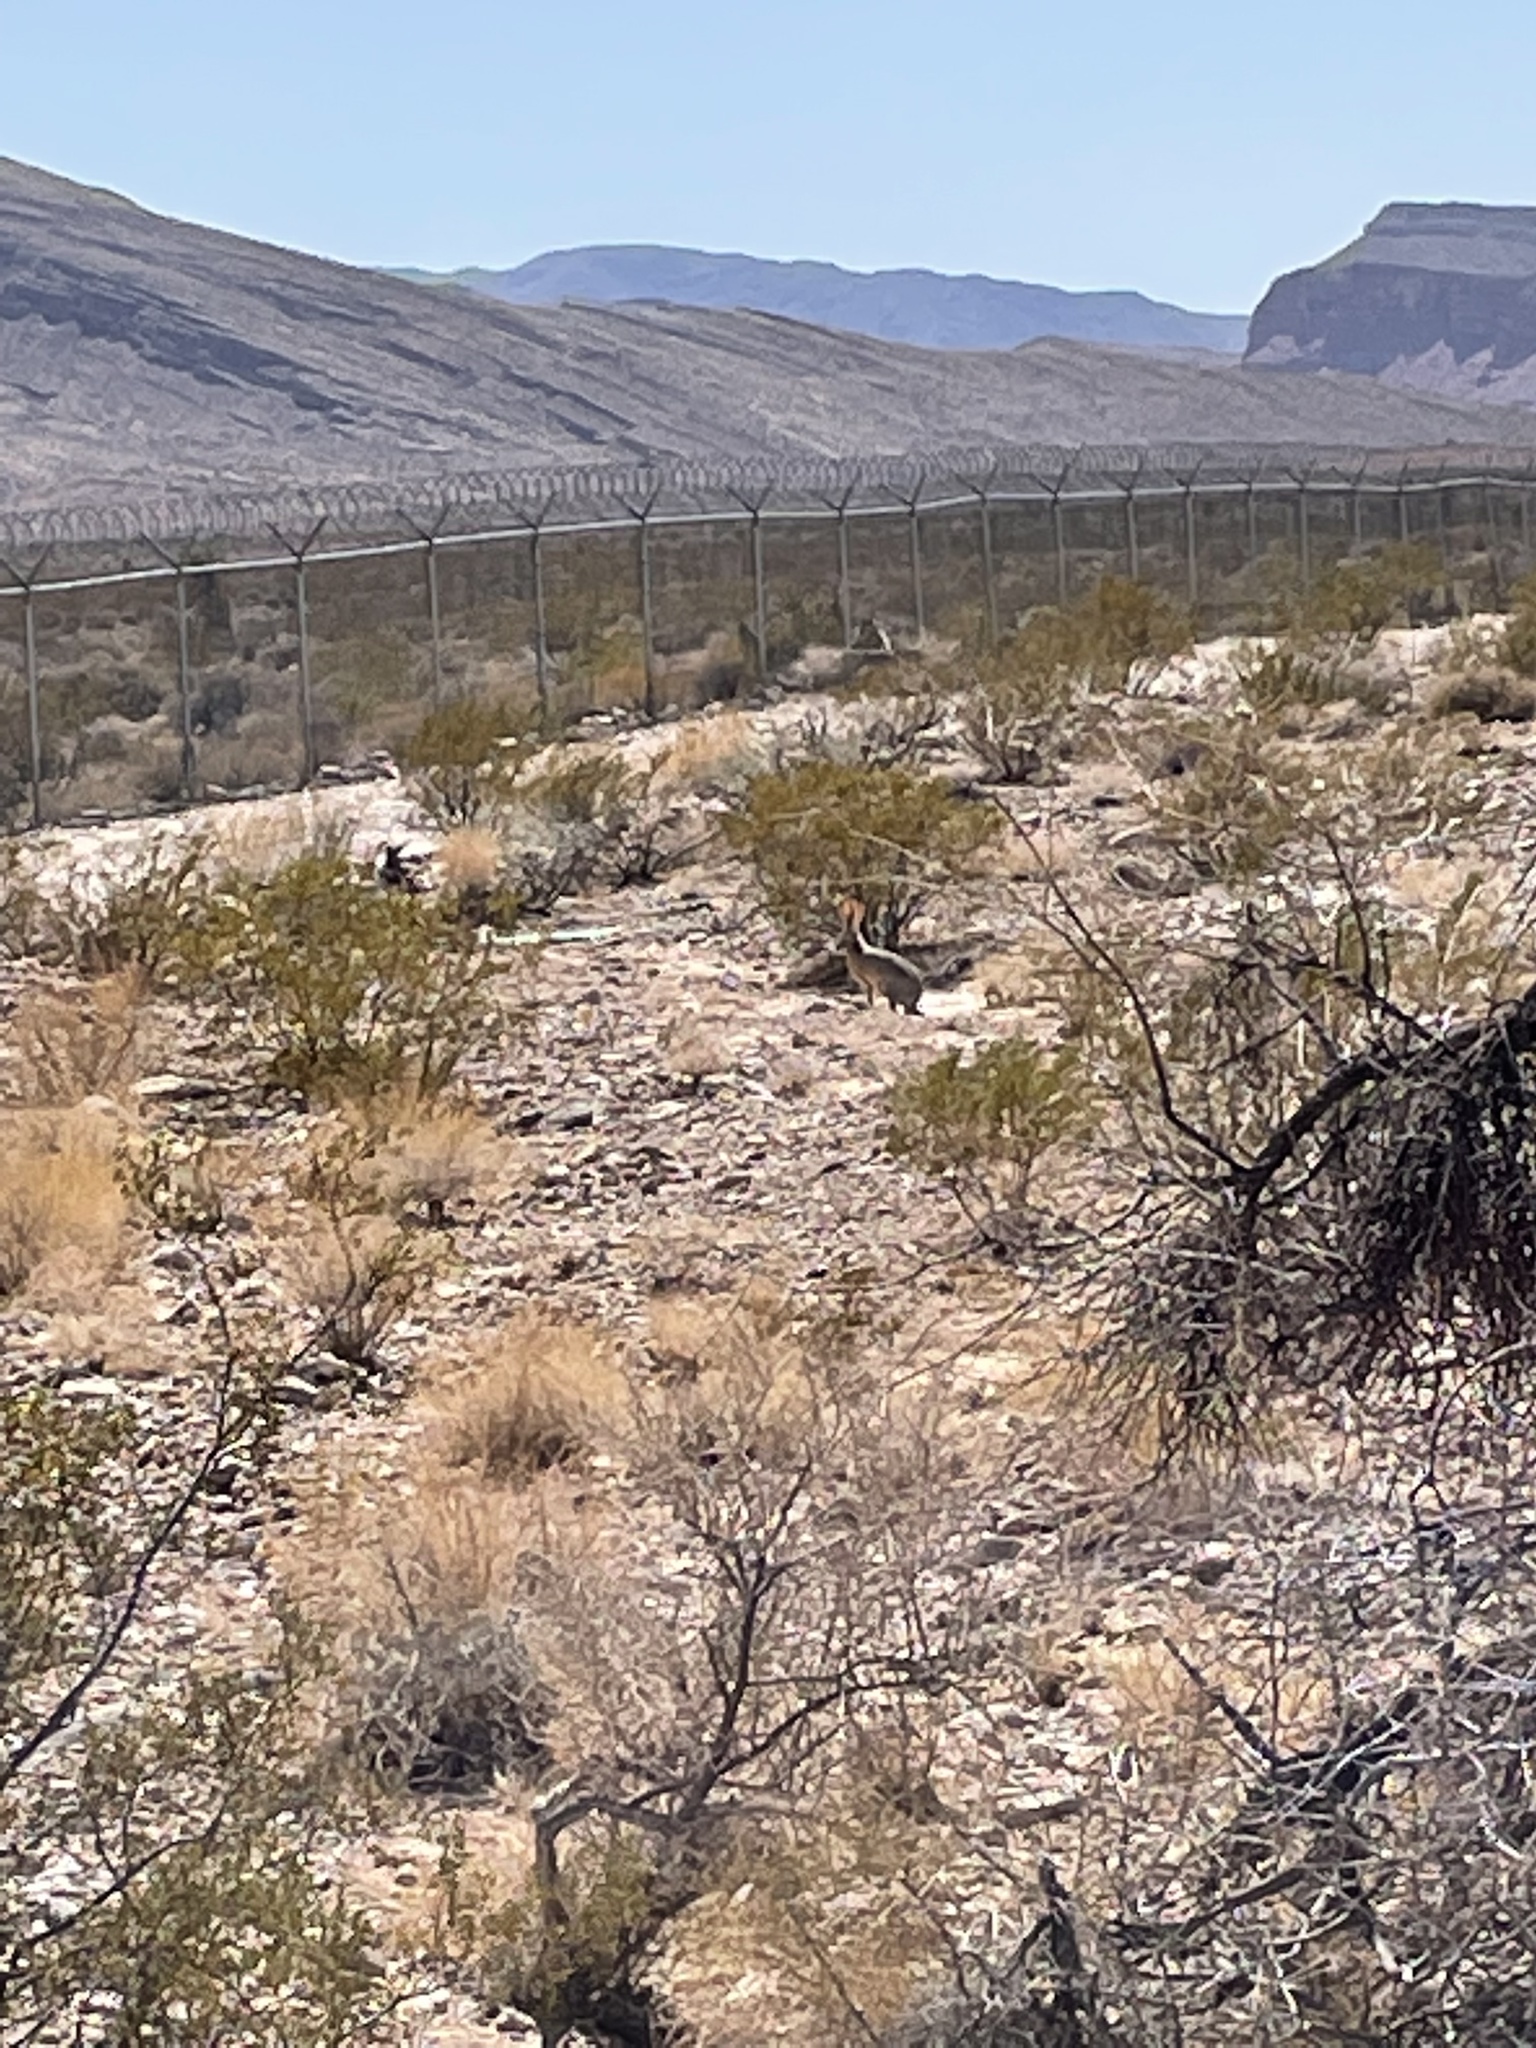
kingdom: Animalia
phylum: Chordata
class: Mammalia
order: Lagomorpha
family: Leporidae
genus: Lepus
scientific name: Lepus californicus
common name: Black-tailed jackrabbit
